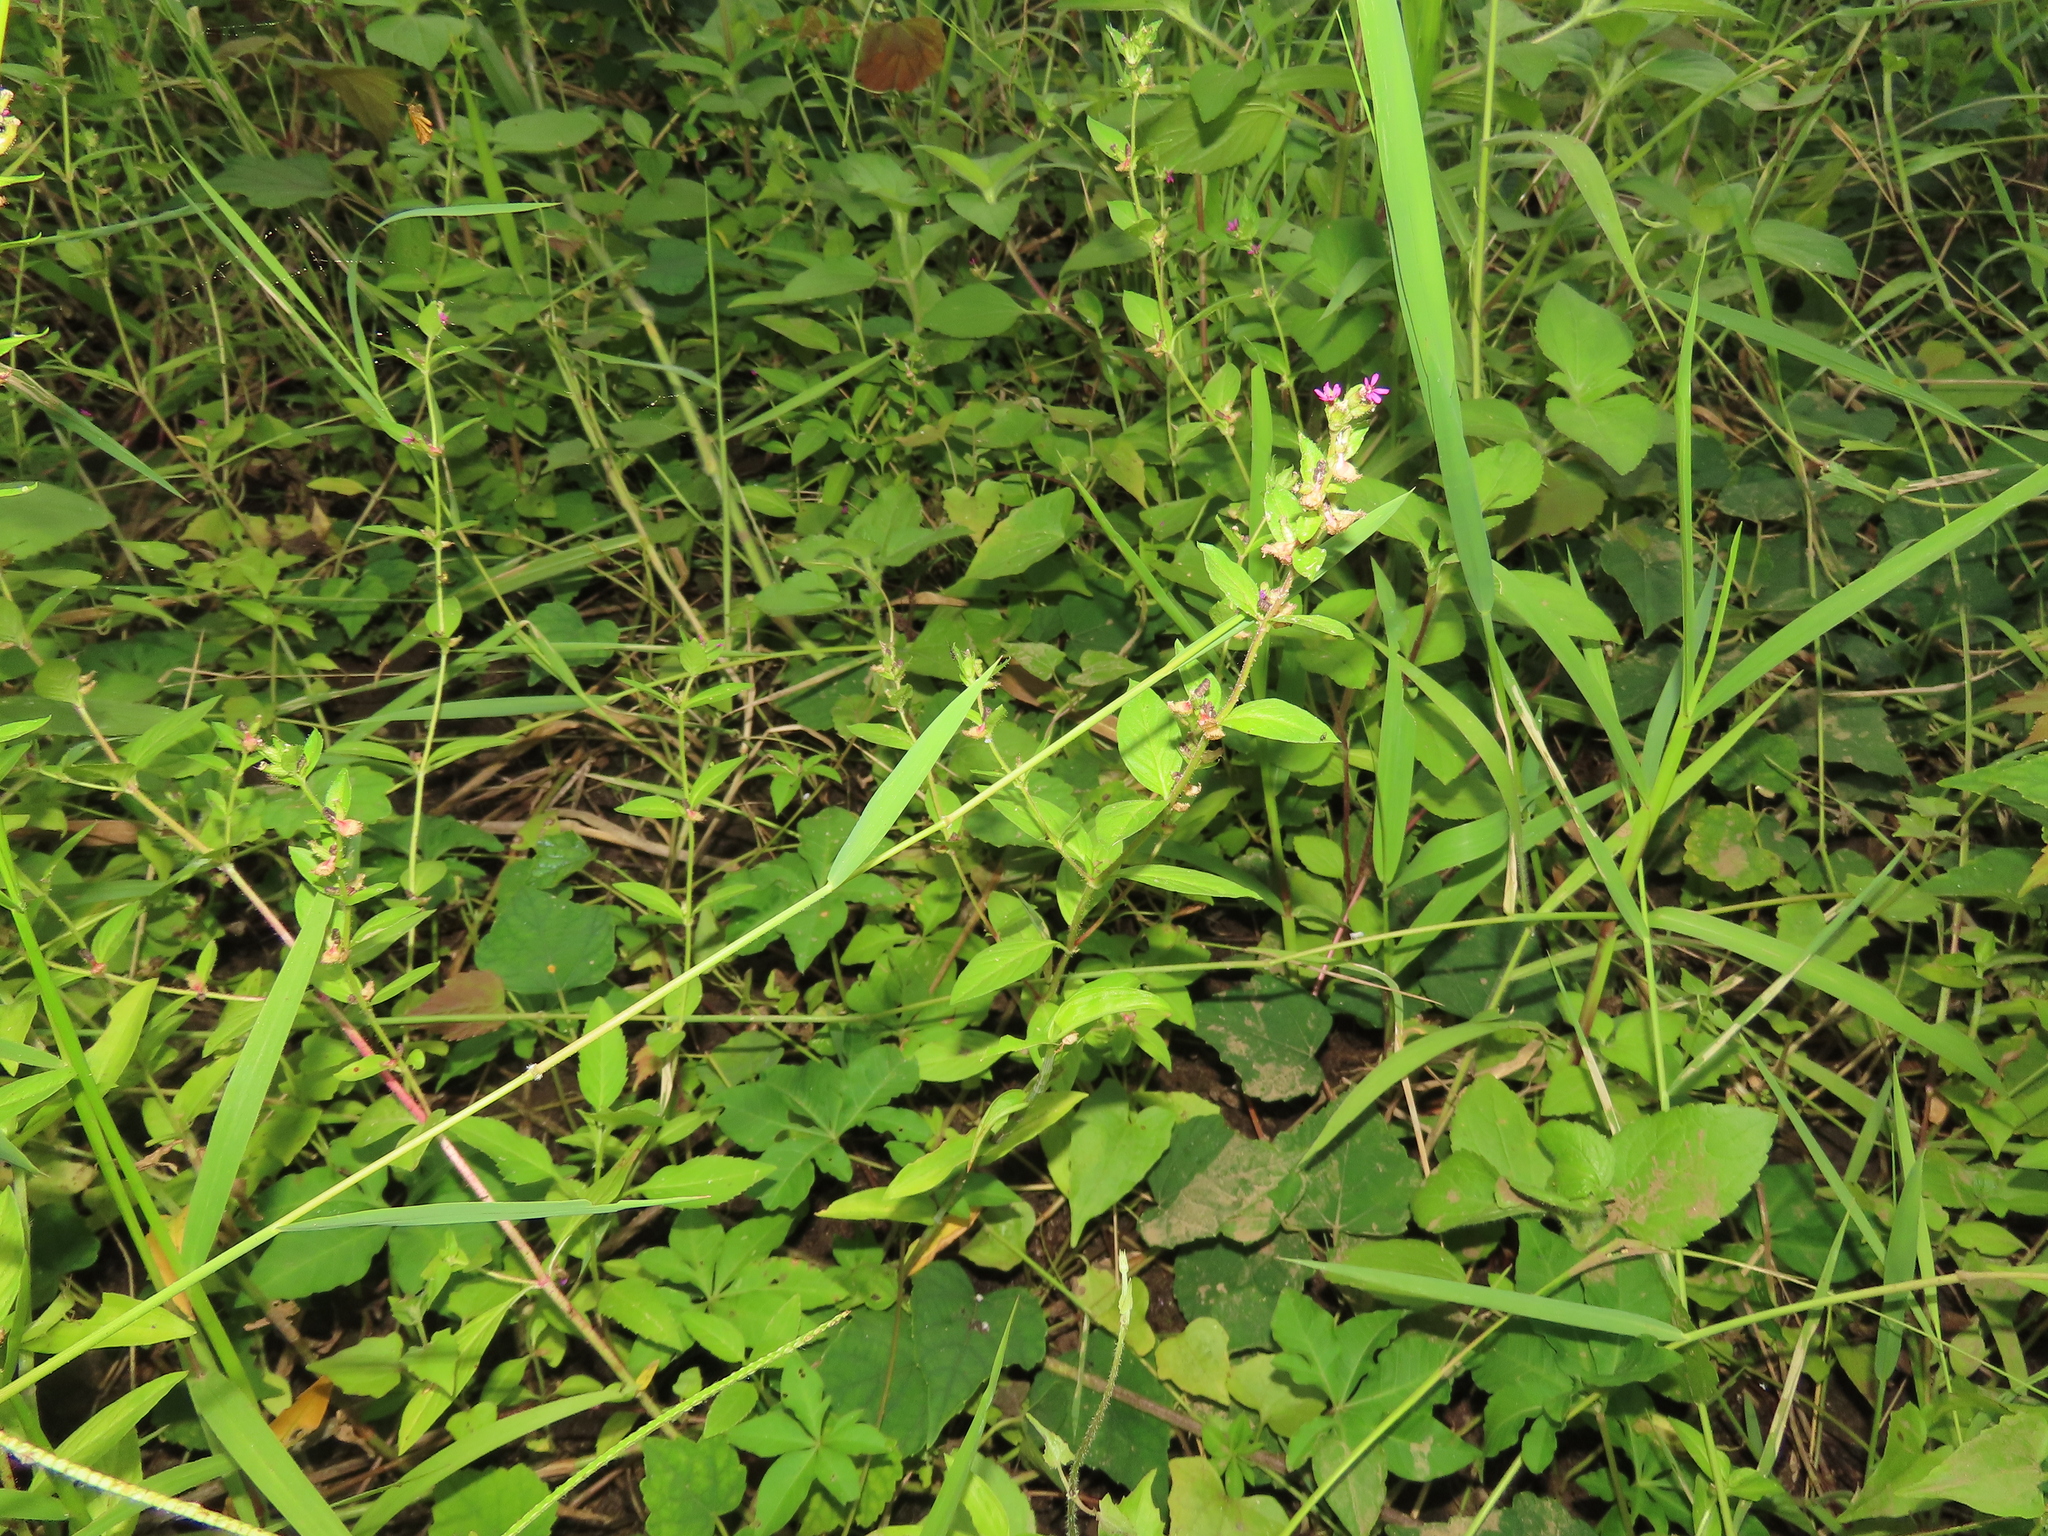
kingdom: Plantae
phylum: Tracheophyta
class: Magnoliopsida
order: Myrtales
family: Lythraceae
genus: Cuphea
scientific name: Cuphea carthagenensis
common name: Colombian waxweed
